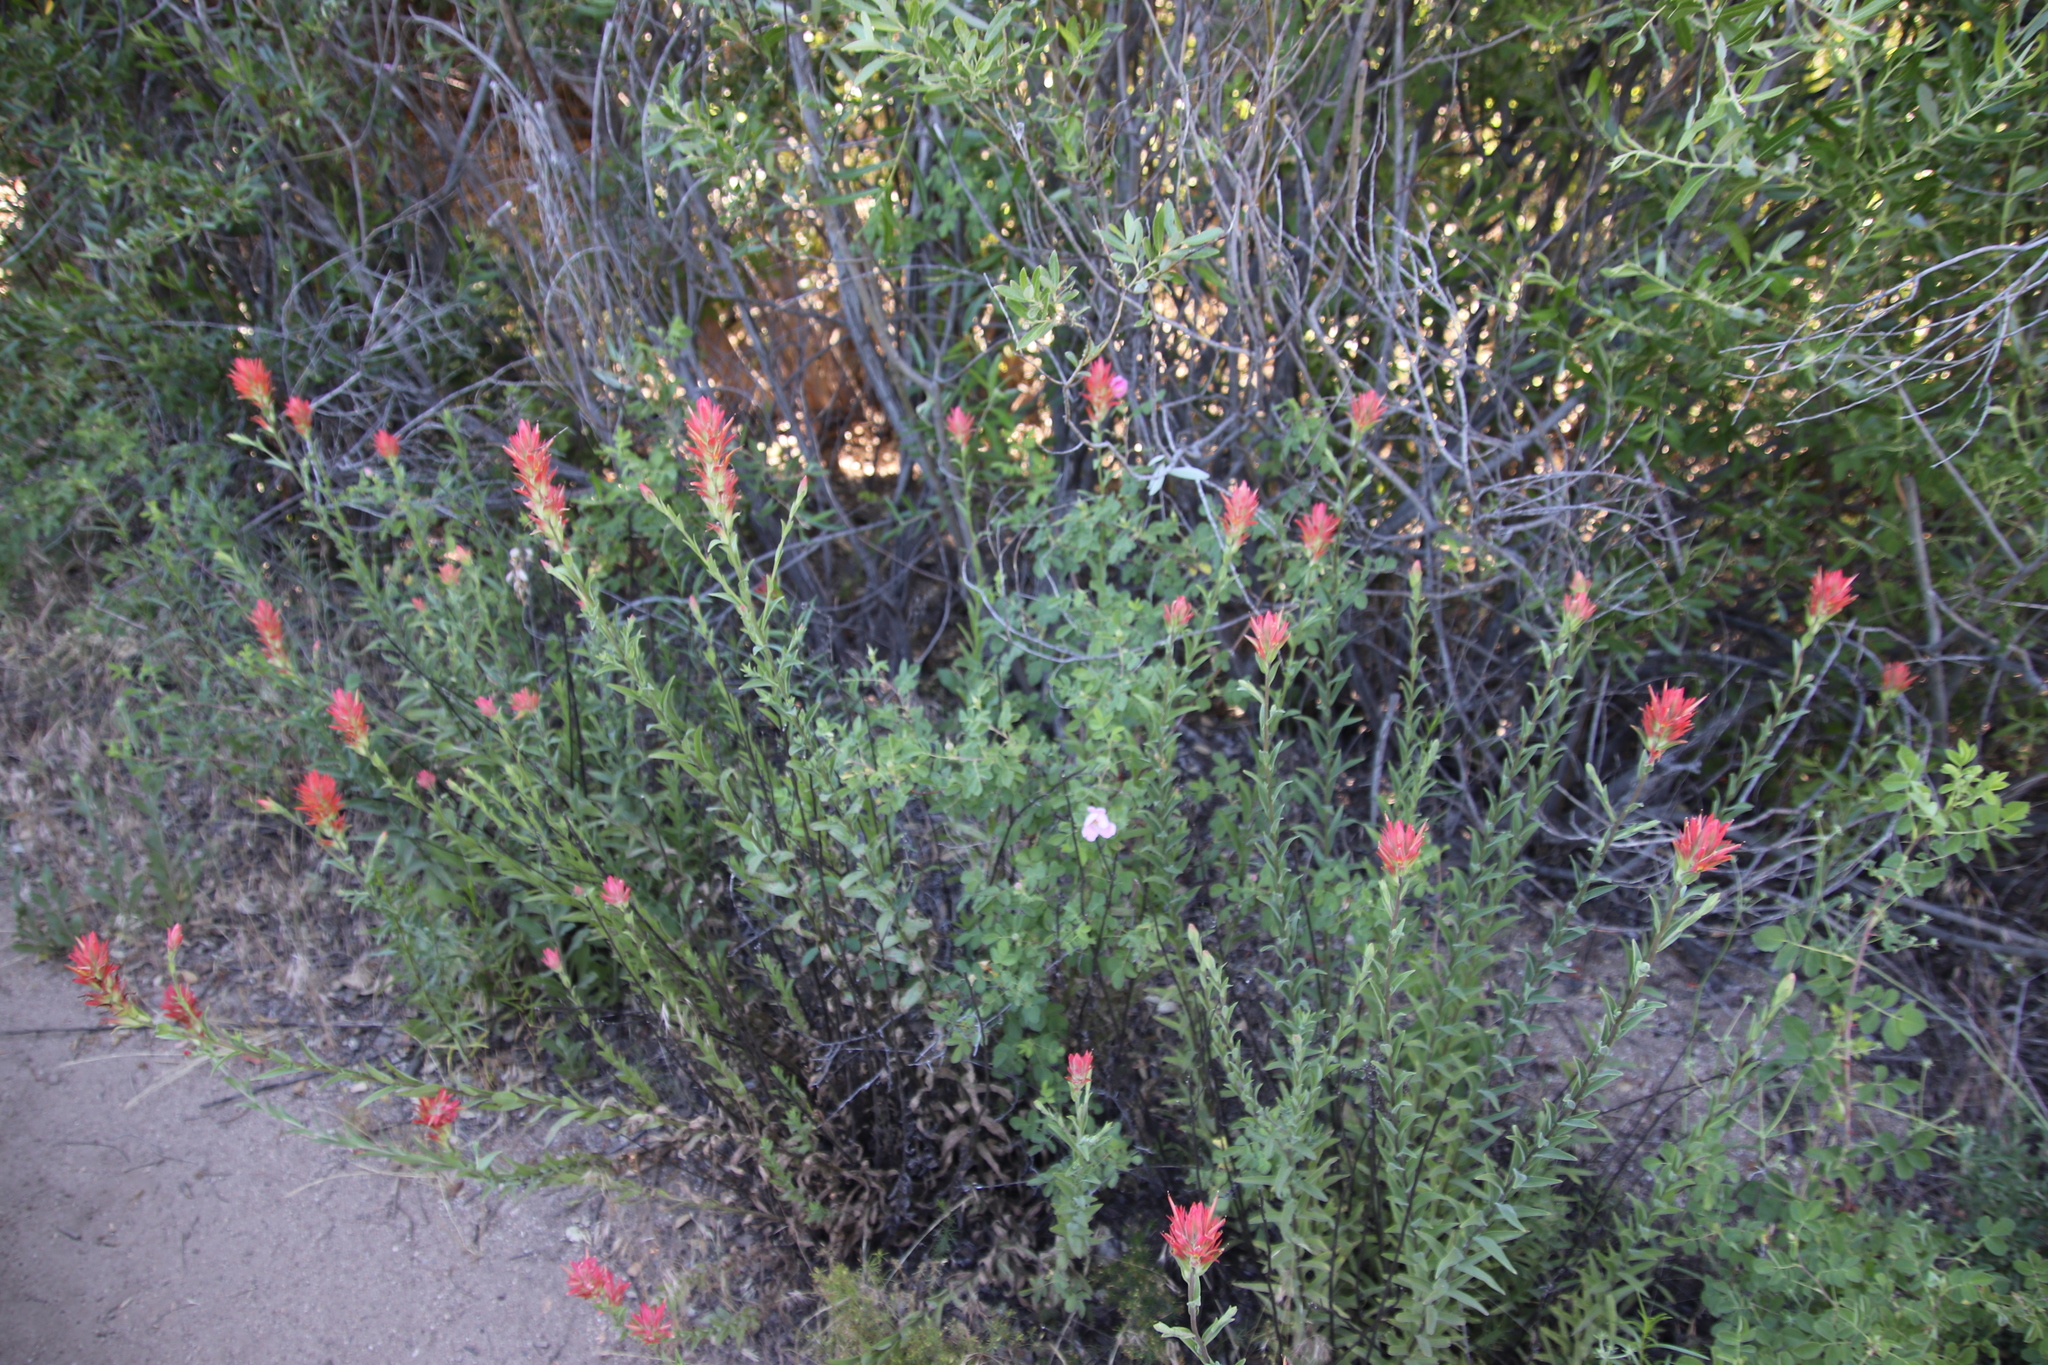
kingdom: Plantae
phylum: Tracheophyta
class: Magnoliopsida
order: Lamiales
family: Orobanchaceae
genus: Castilleja
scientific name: Castilleja miniata
